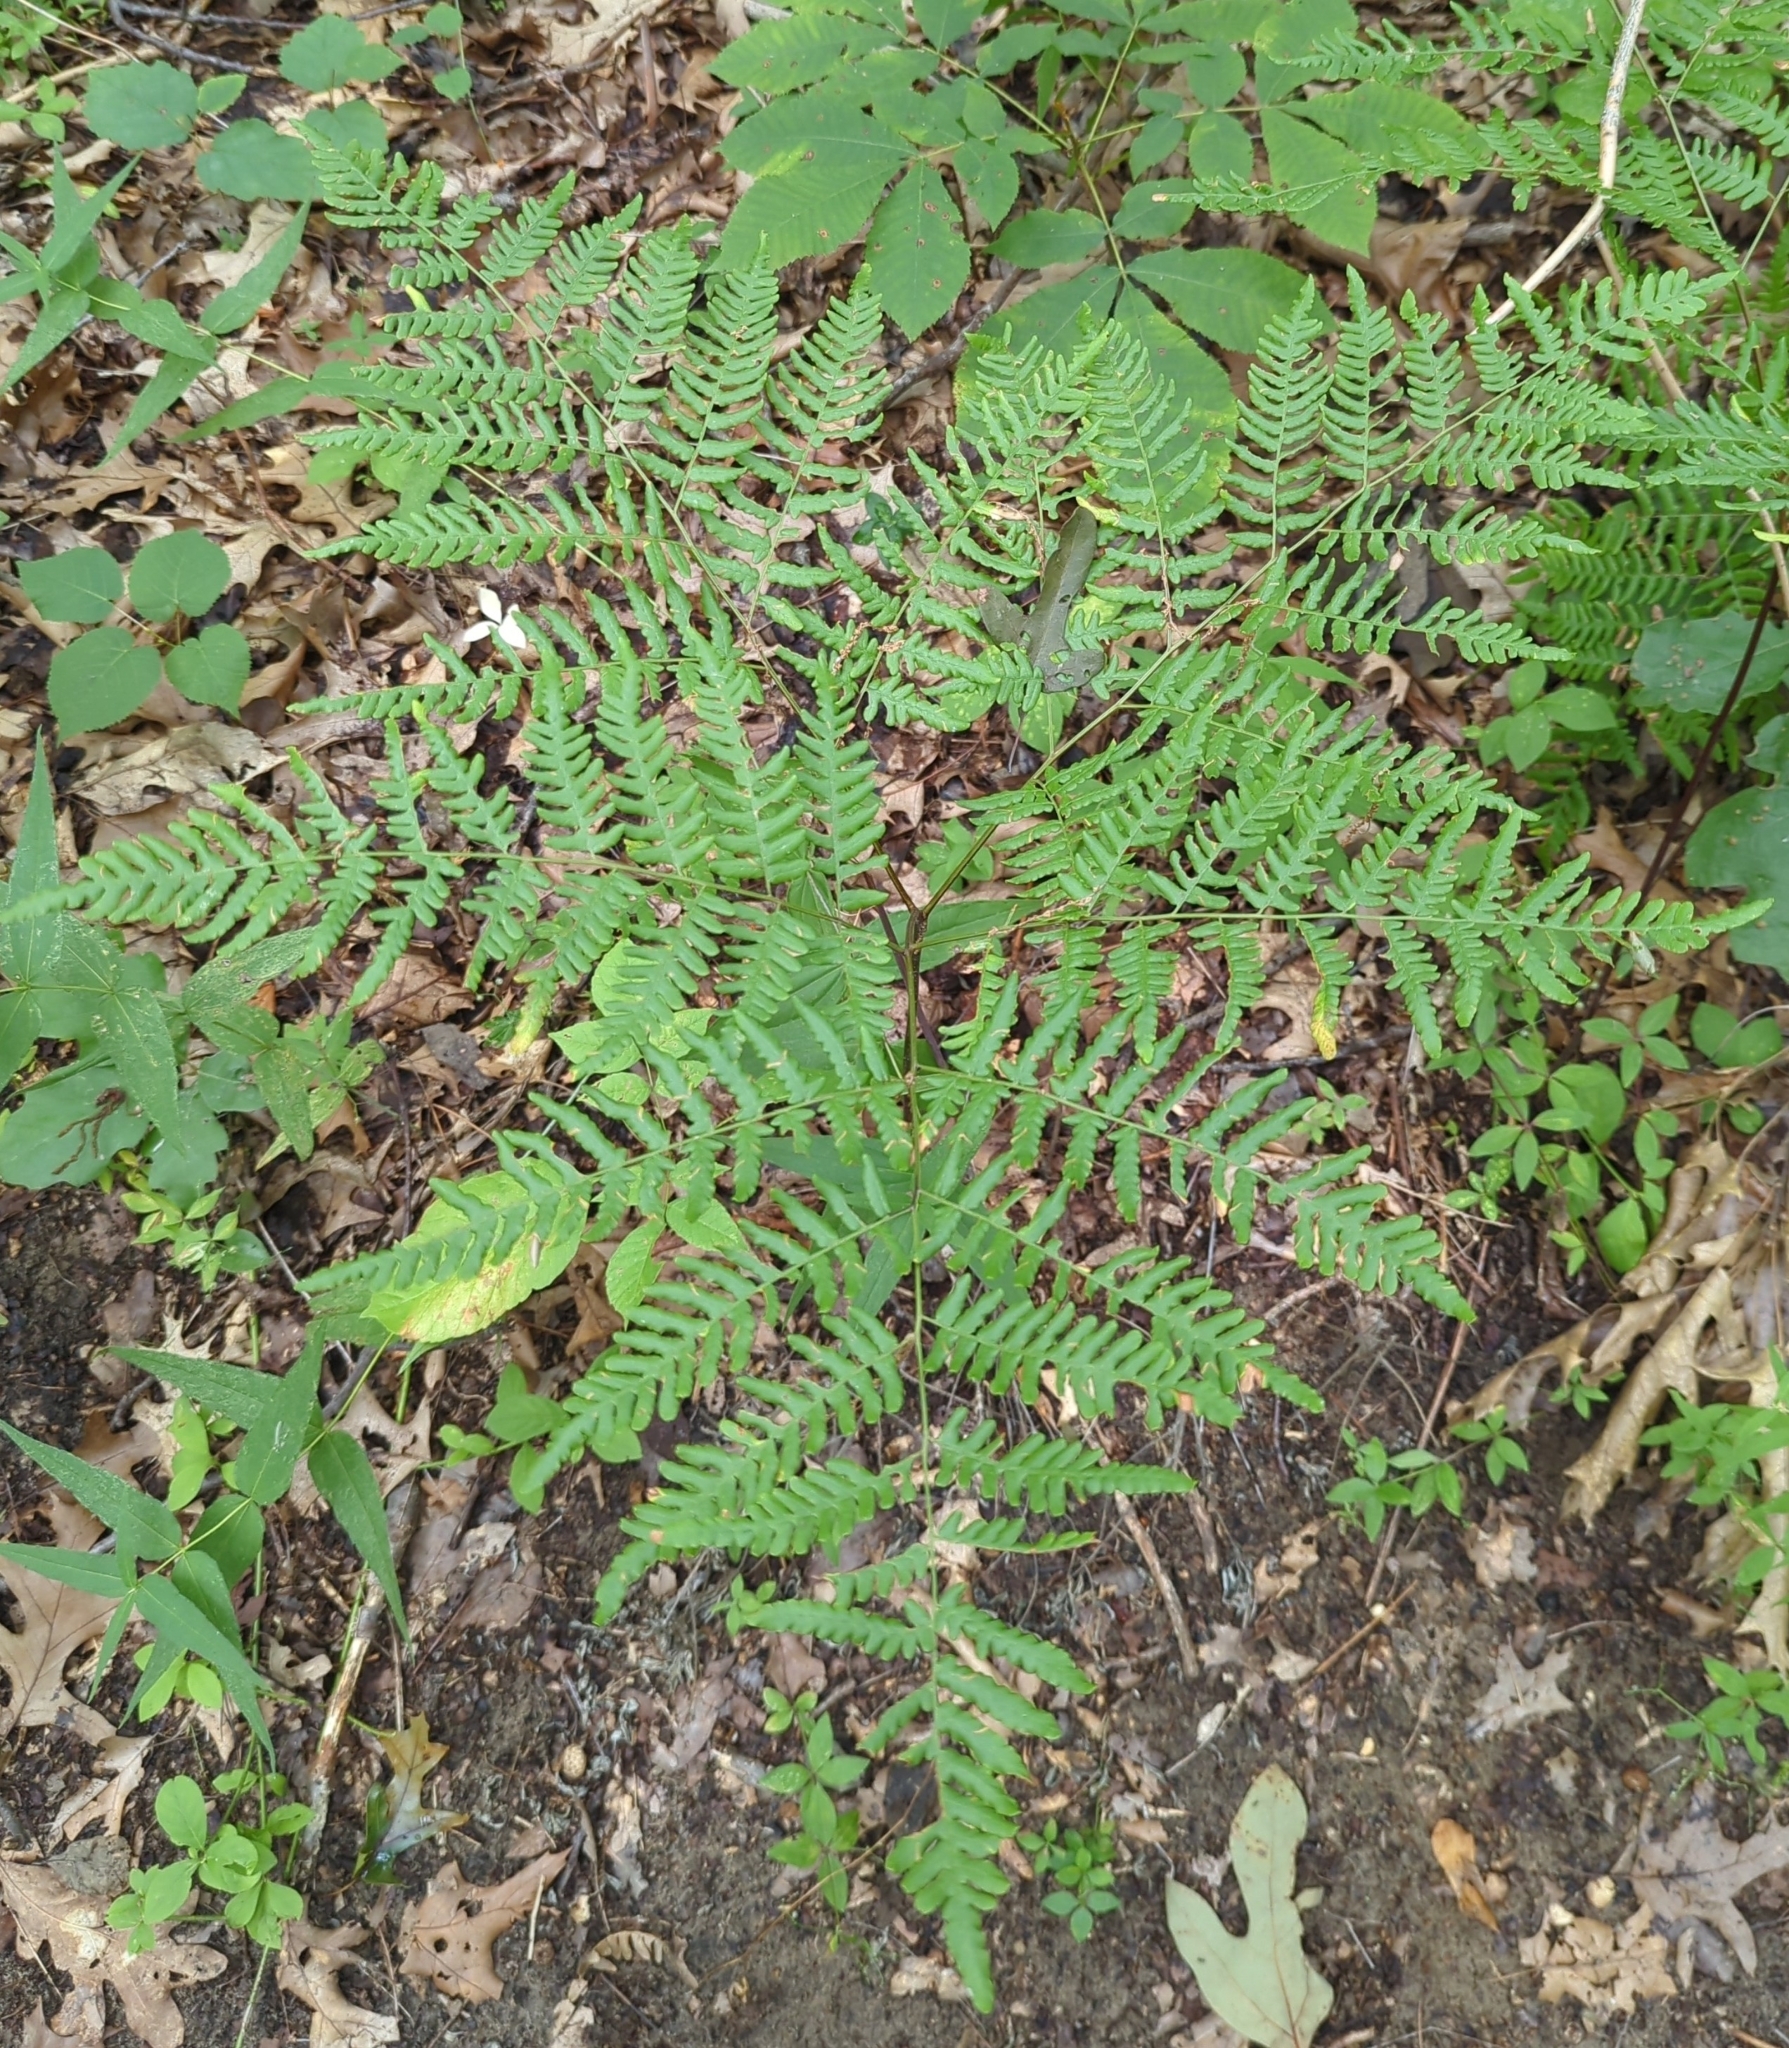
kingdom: Plantae
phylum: Tracheophyta
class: Polypodiopsida
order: Polypodiales
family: Dennstaedtiaceae
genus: Pteridium
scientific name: Pteridium aquilinum
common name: Bracken
